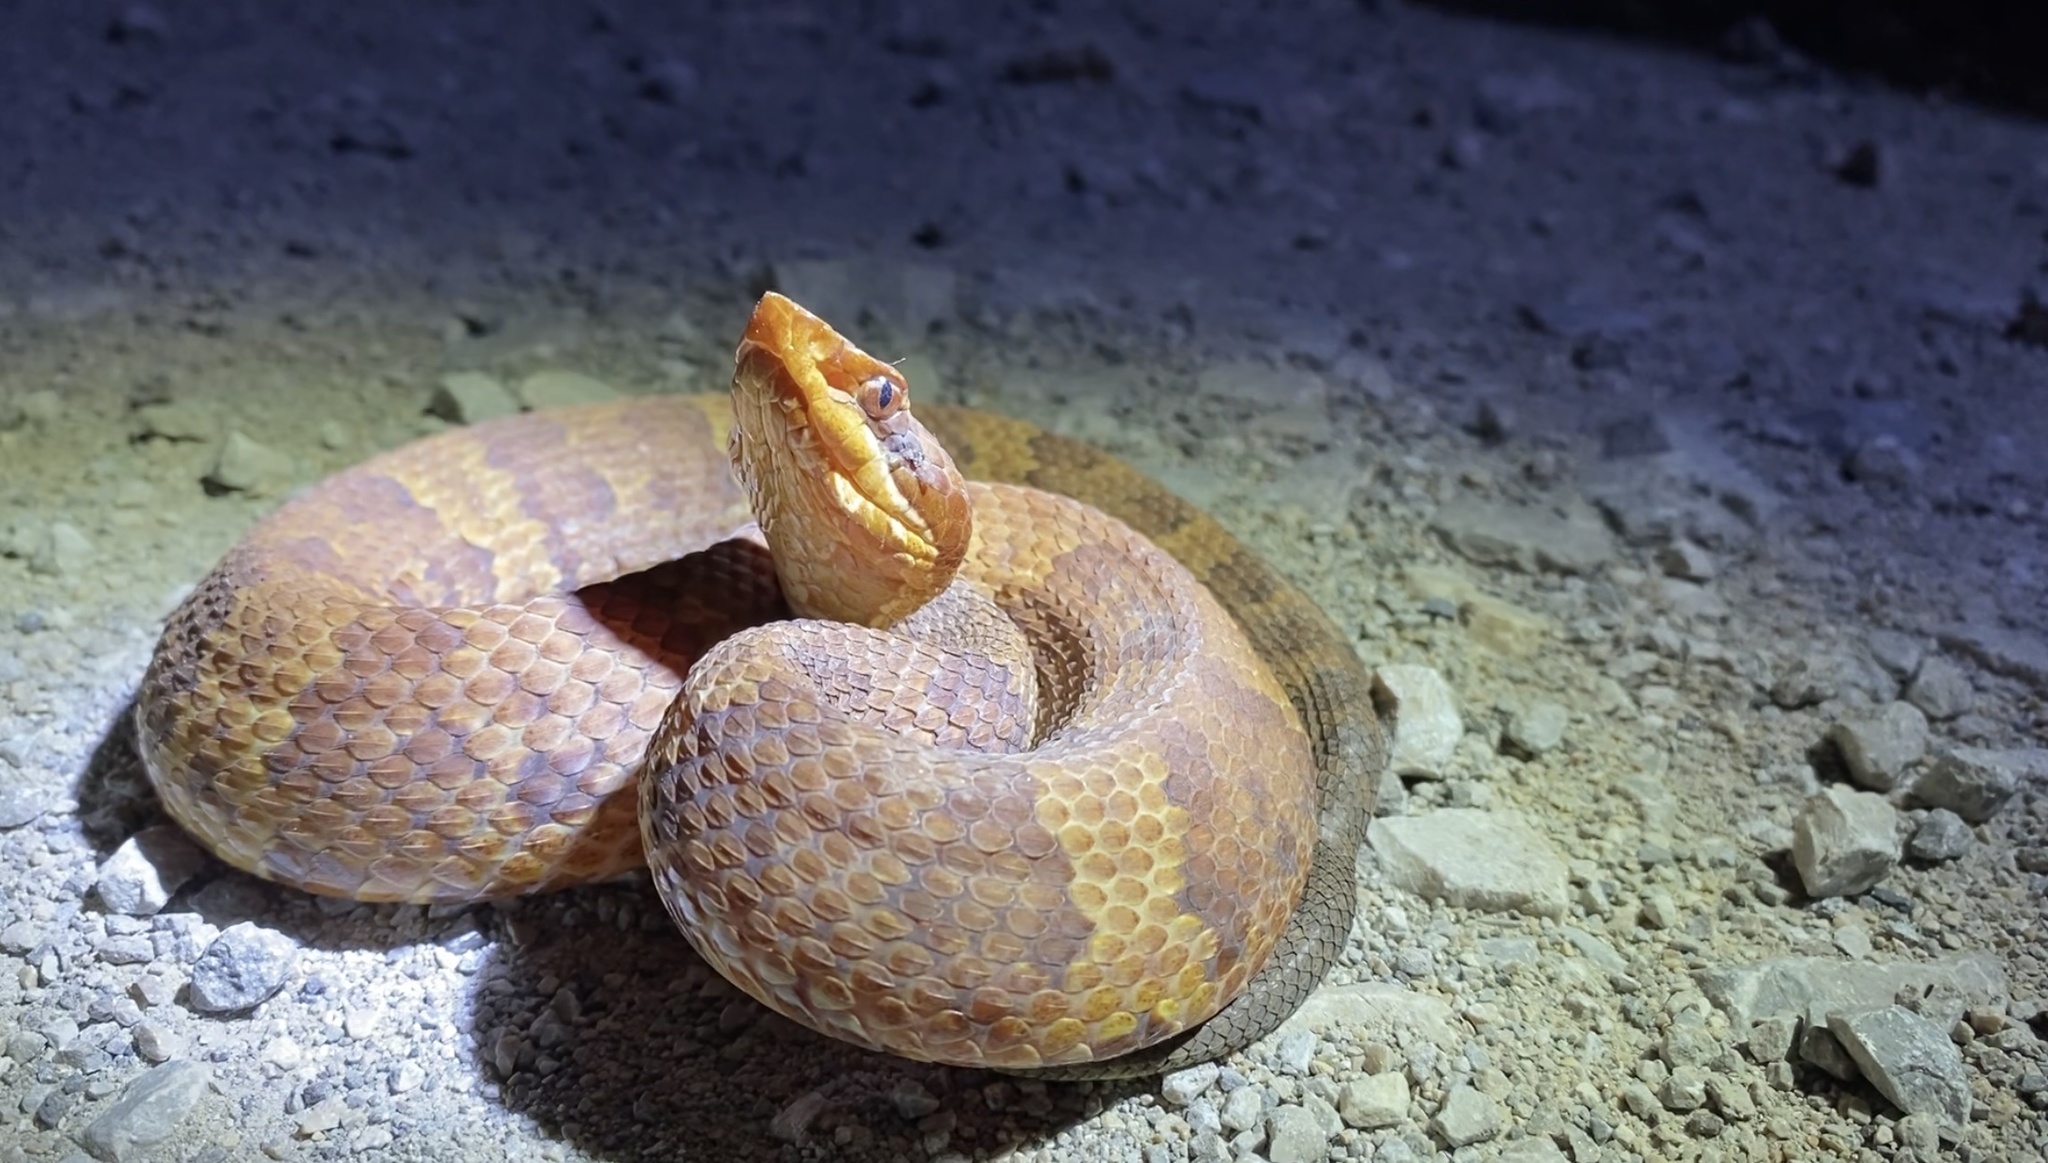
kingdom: Animalia
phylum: Chordata
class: Squamata
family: Viperidae
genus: Agkistrodon
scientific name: Agkistrodon piscivorus
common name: Cottonmouth
